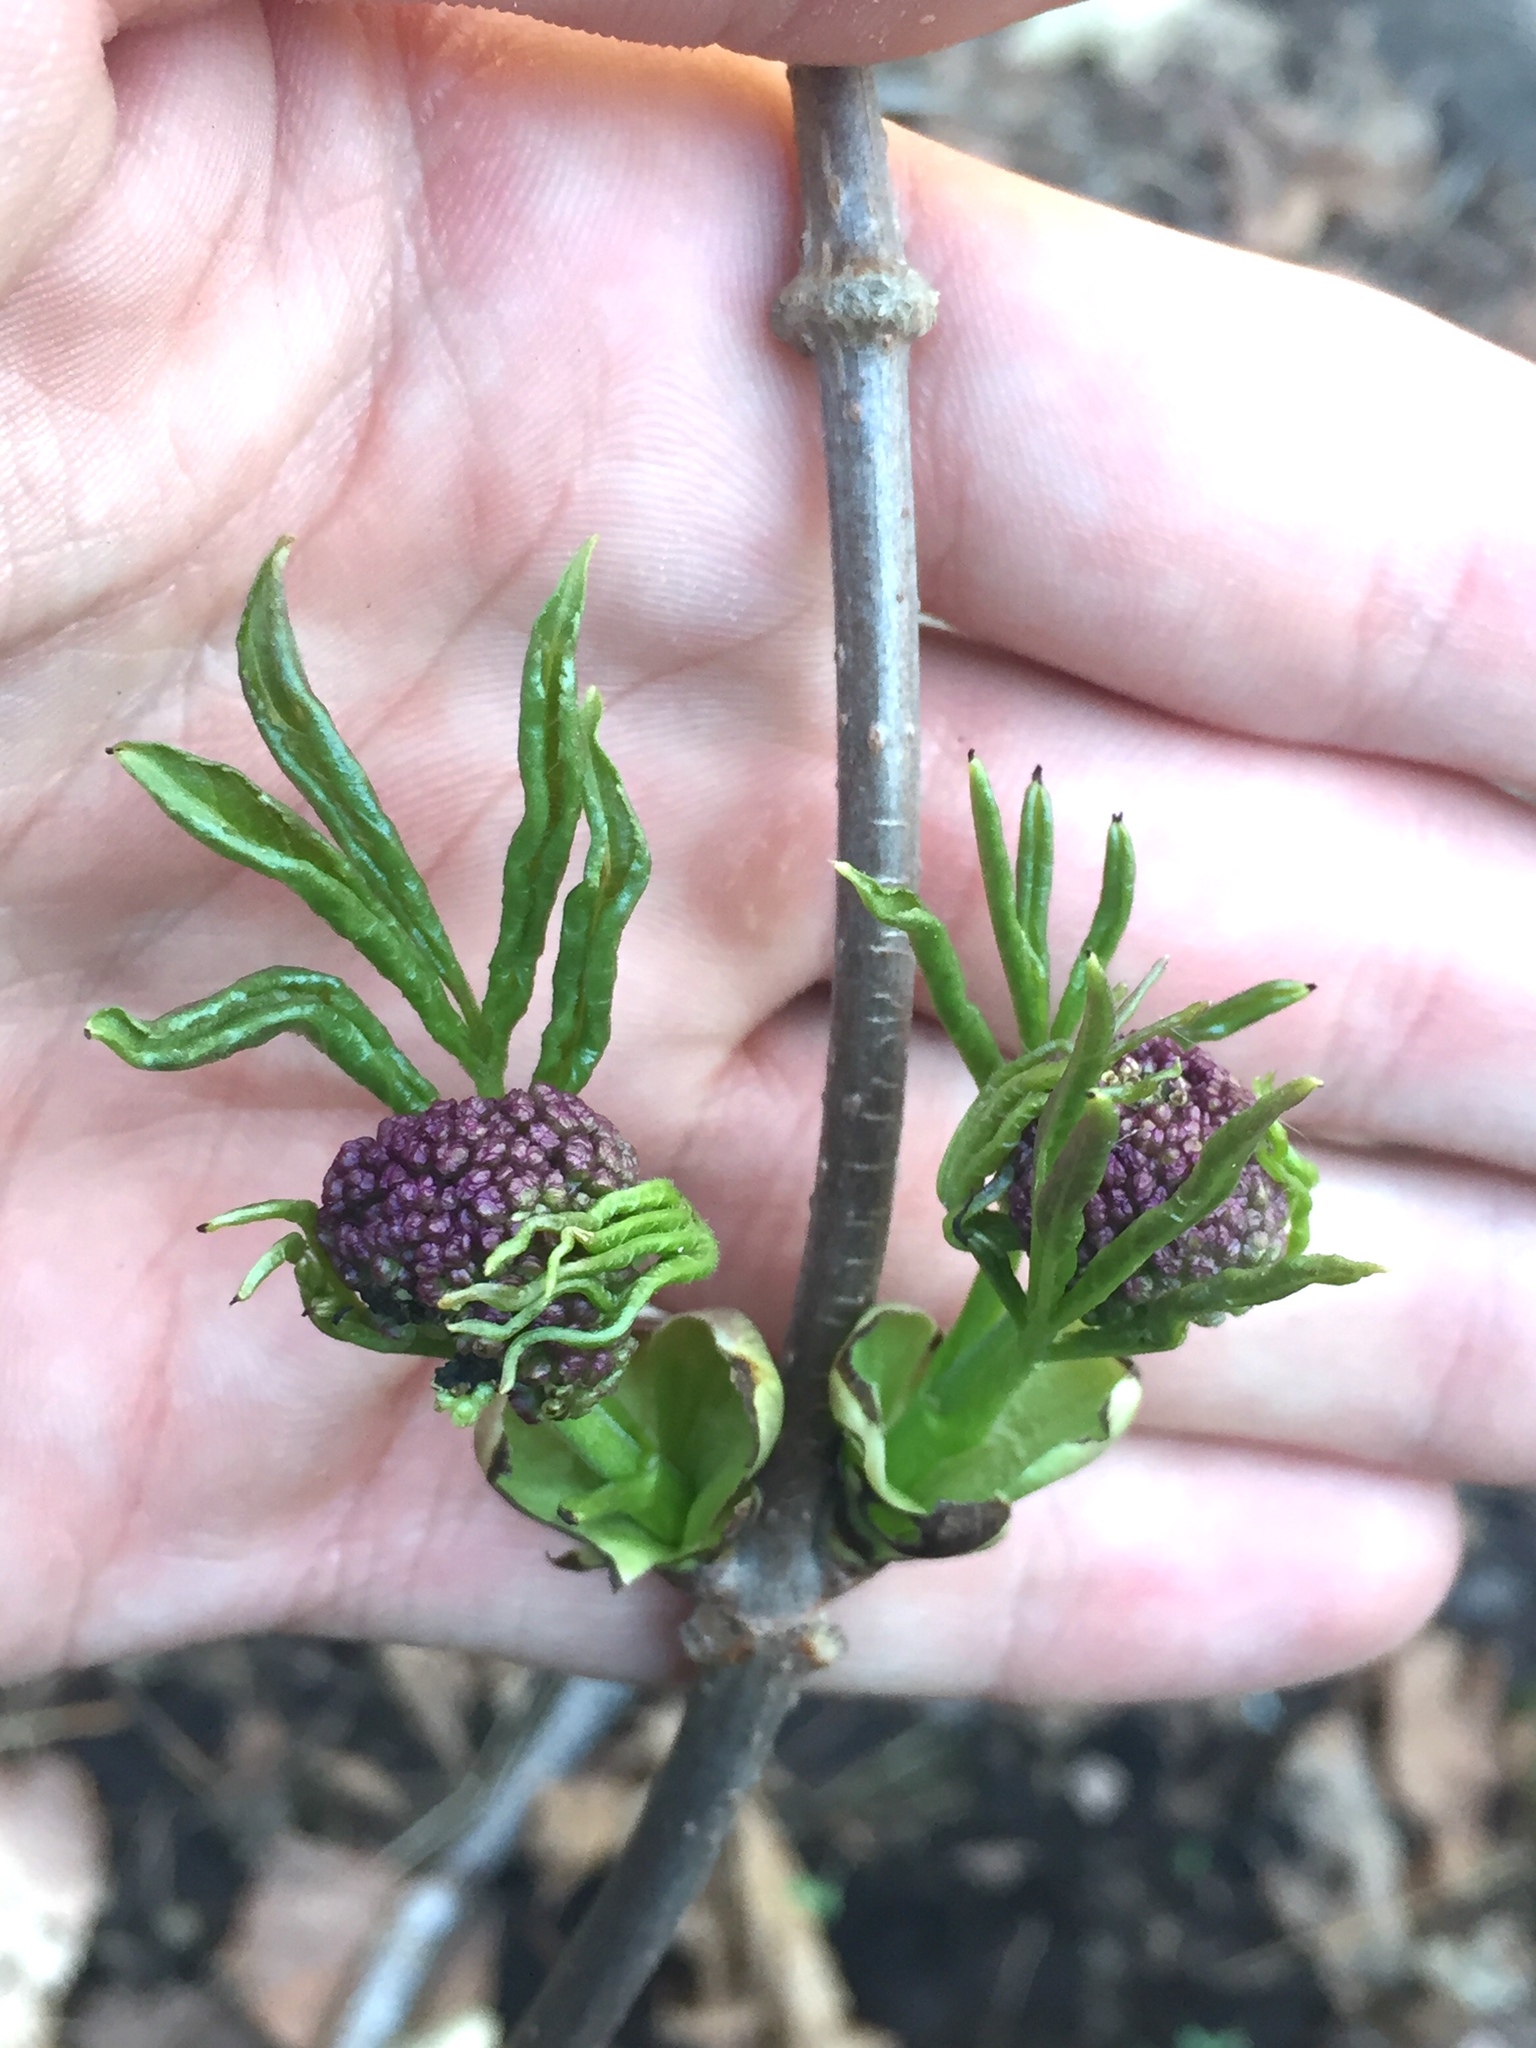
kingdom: Plantae
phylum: Tracheophyta
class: Magnoliopsida
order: Dipsacales
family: Viburnaceae
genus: Sambucus
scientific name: Sambucus racemosa
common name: Red-berried elder
